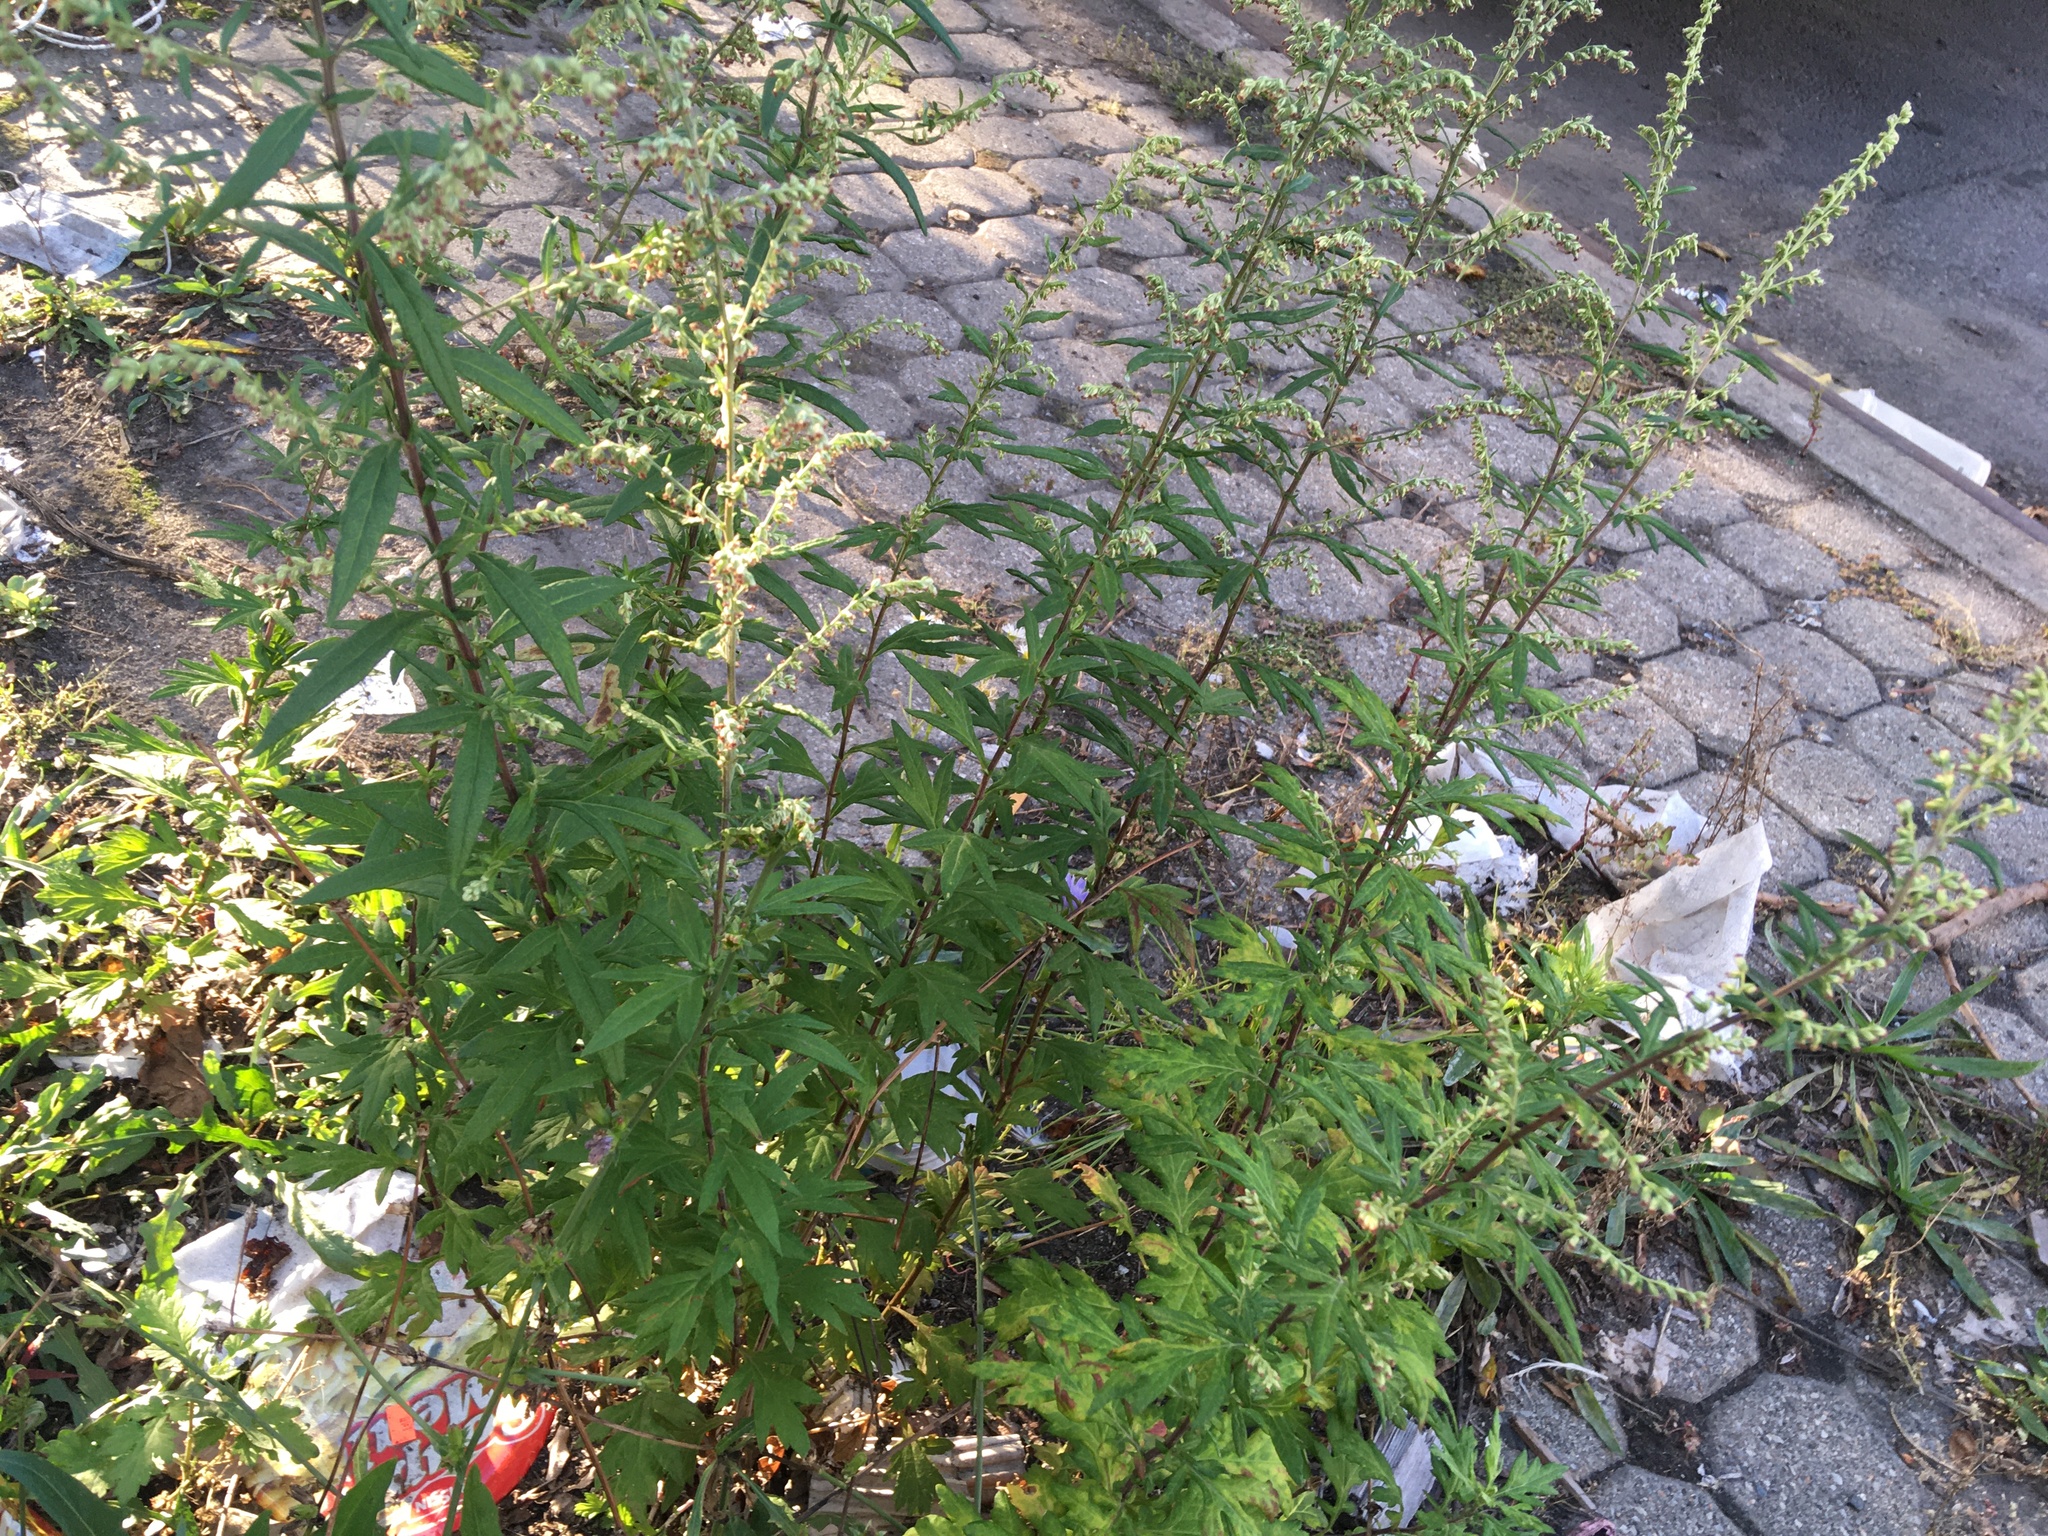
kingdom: Plantae
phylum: Tracheophyta
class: Magnoliopsida
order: Asterales
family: Asteraceae
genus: Artemisia
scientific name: Artemisia vulgaris
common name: Mugwort
